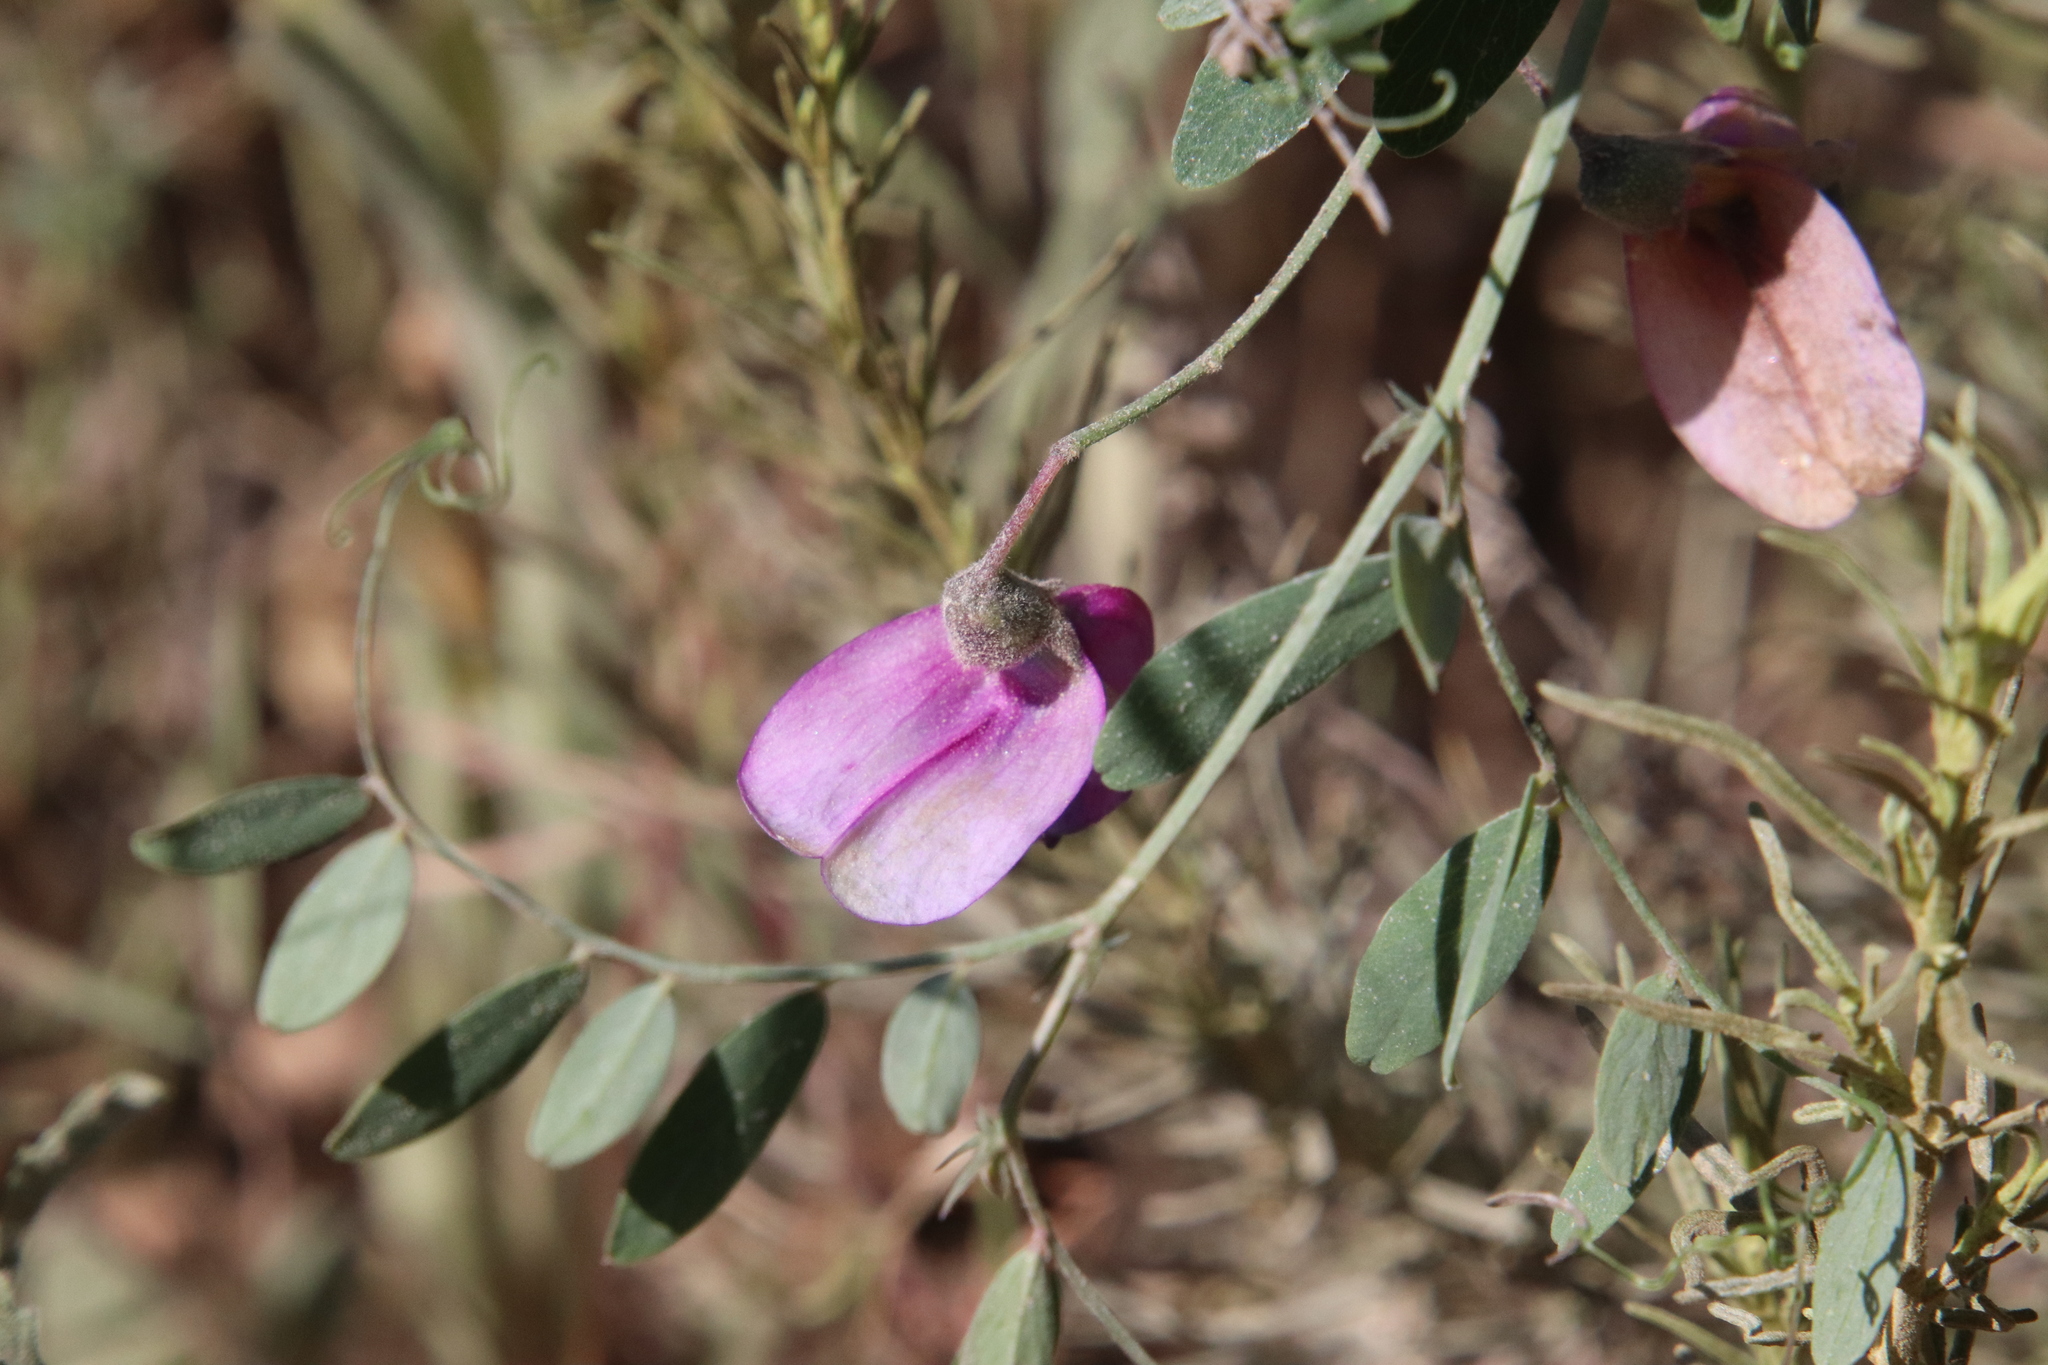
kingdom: Plantae
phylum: Tracheophyta
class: Magnoliopsida
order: Fabales
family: Fabaceae
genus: Lathyrus
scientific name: Lathyrus vestitus
